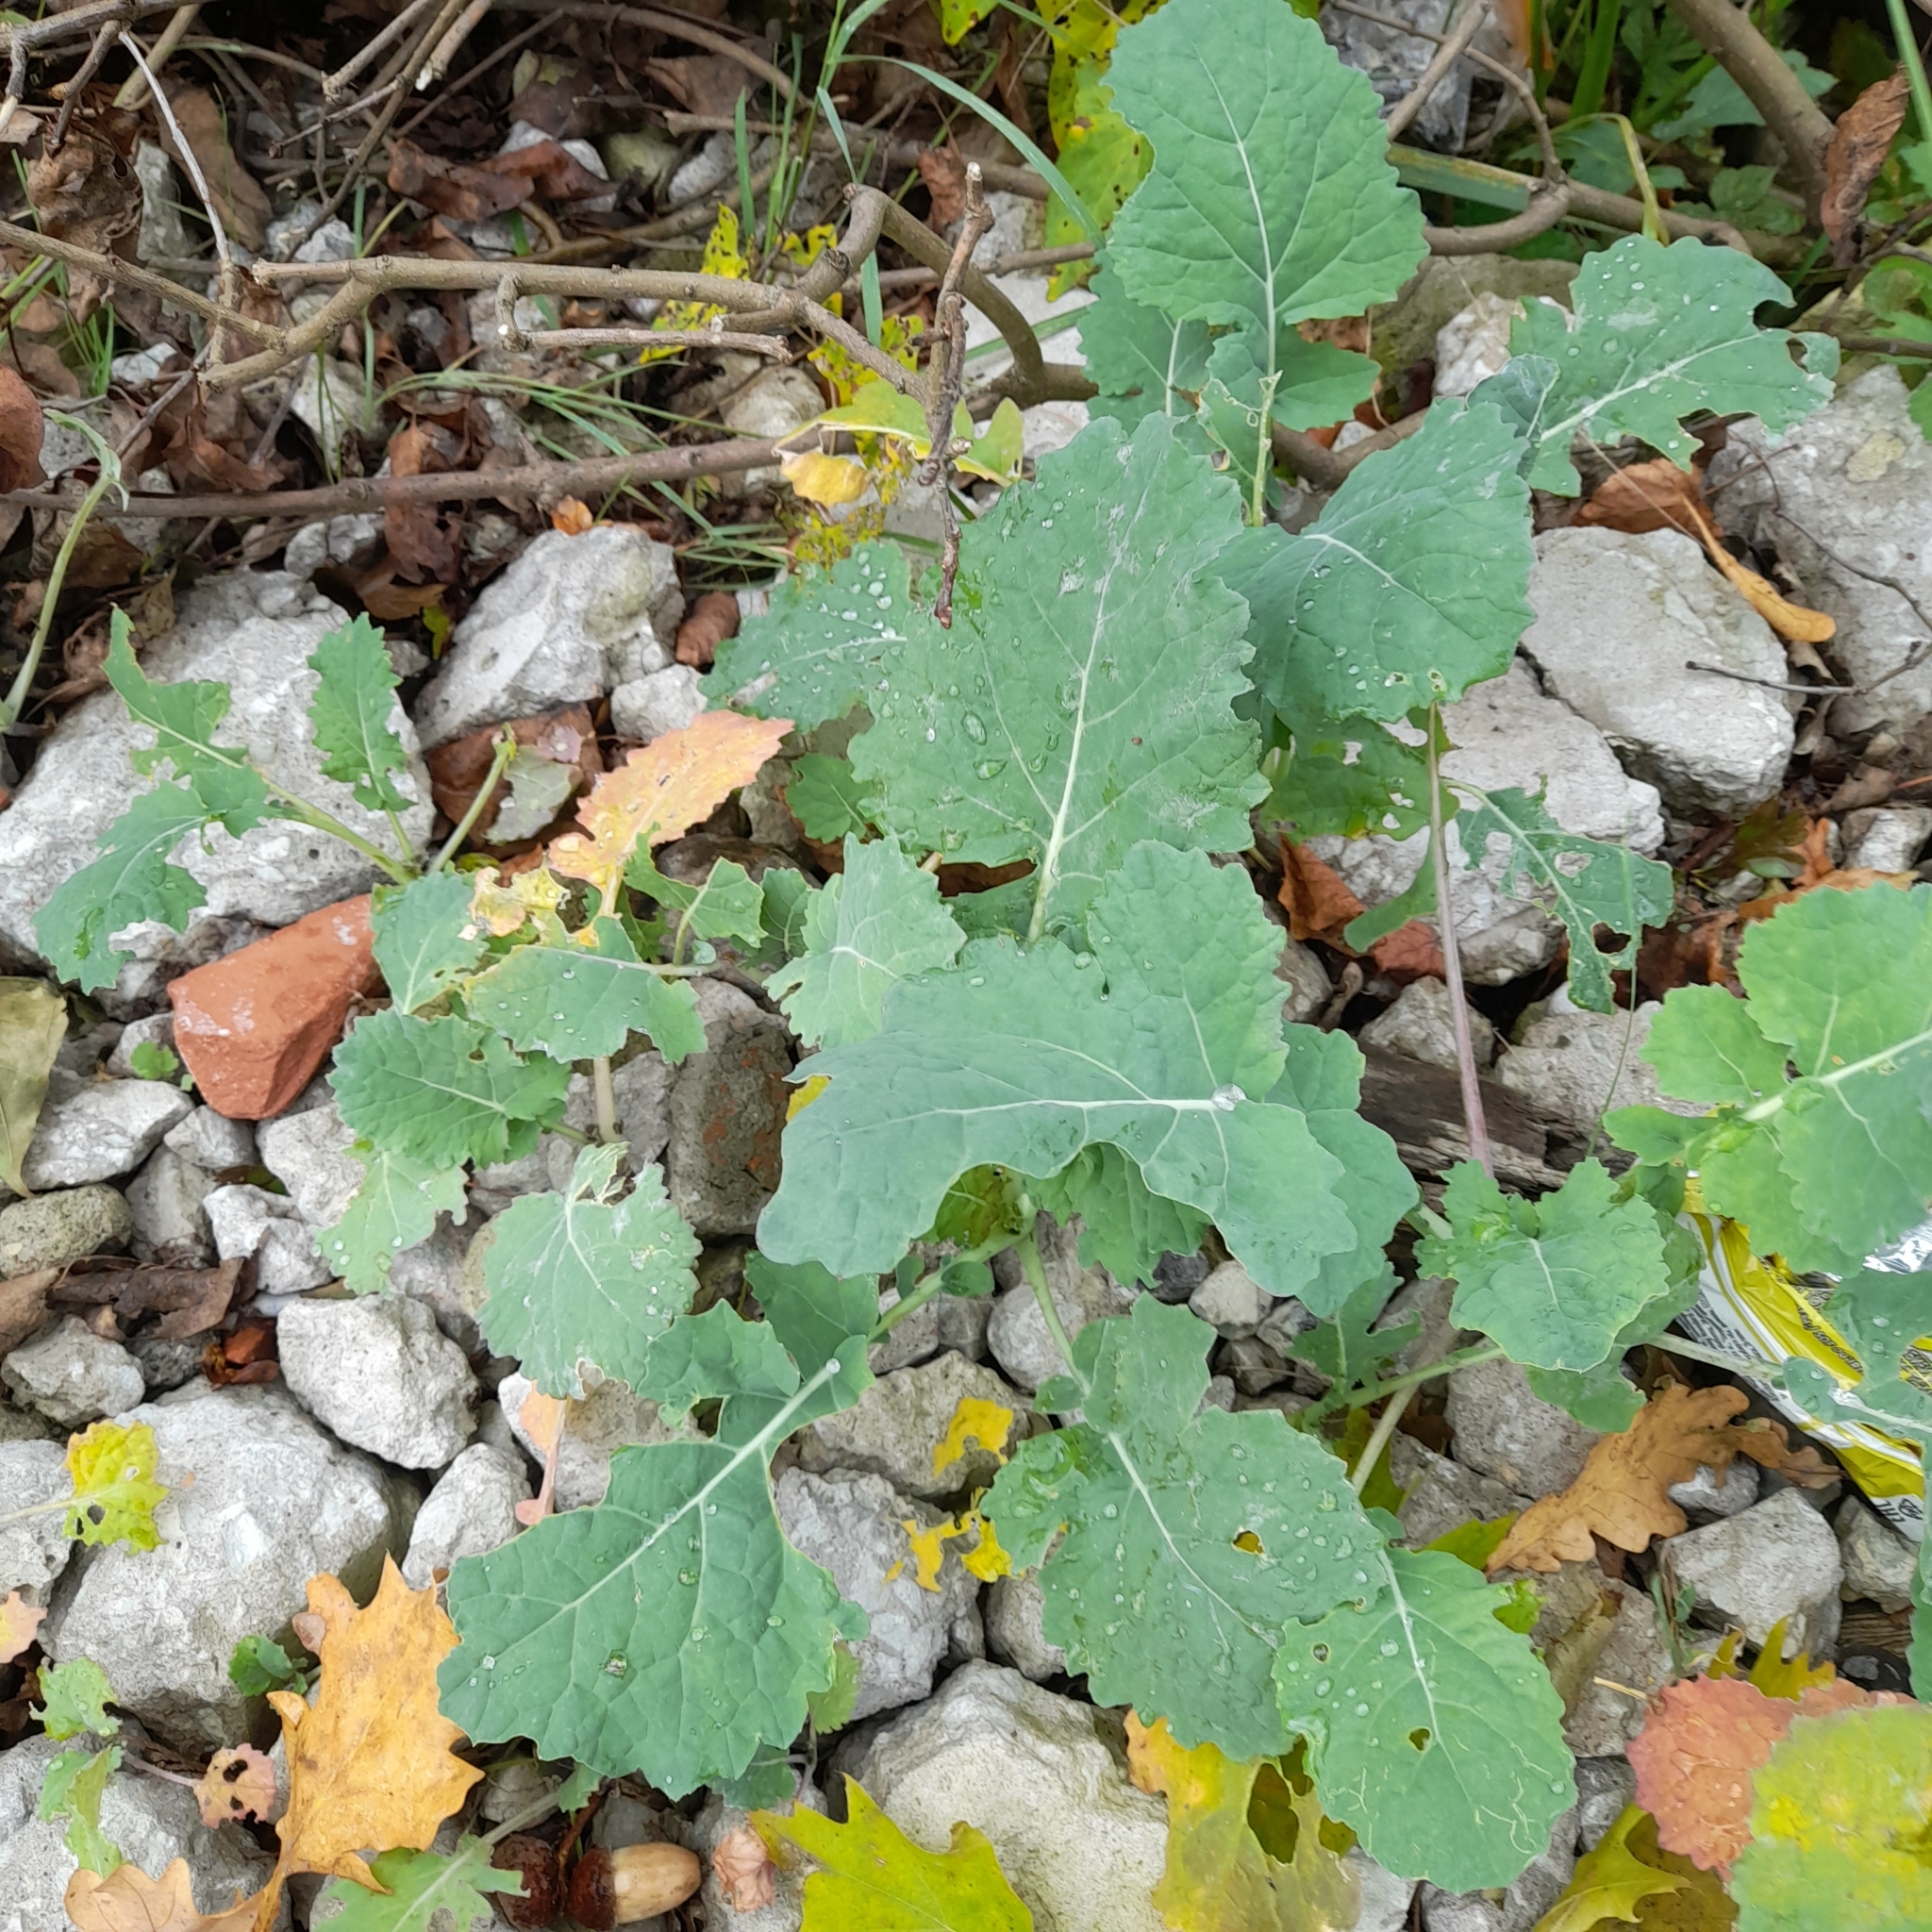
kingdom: Plantae
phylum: Tracheophyta
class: Magnoliopsida
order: Brassicales
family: Brassicaceae
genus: Brassica
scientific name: Brassica napus
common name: Rape
